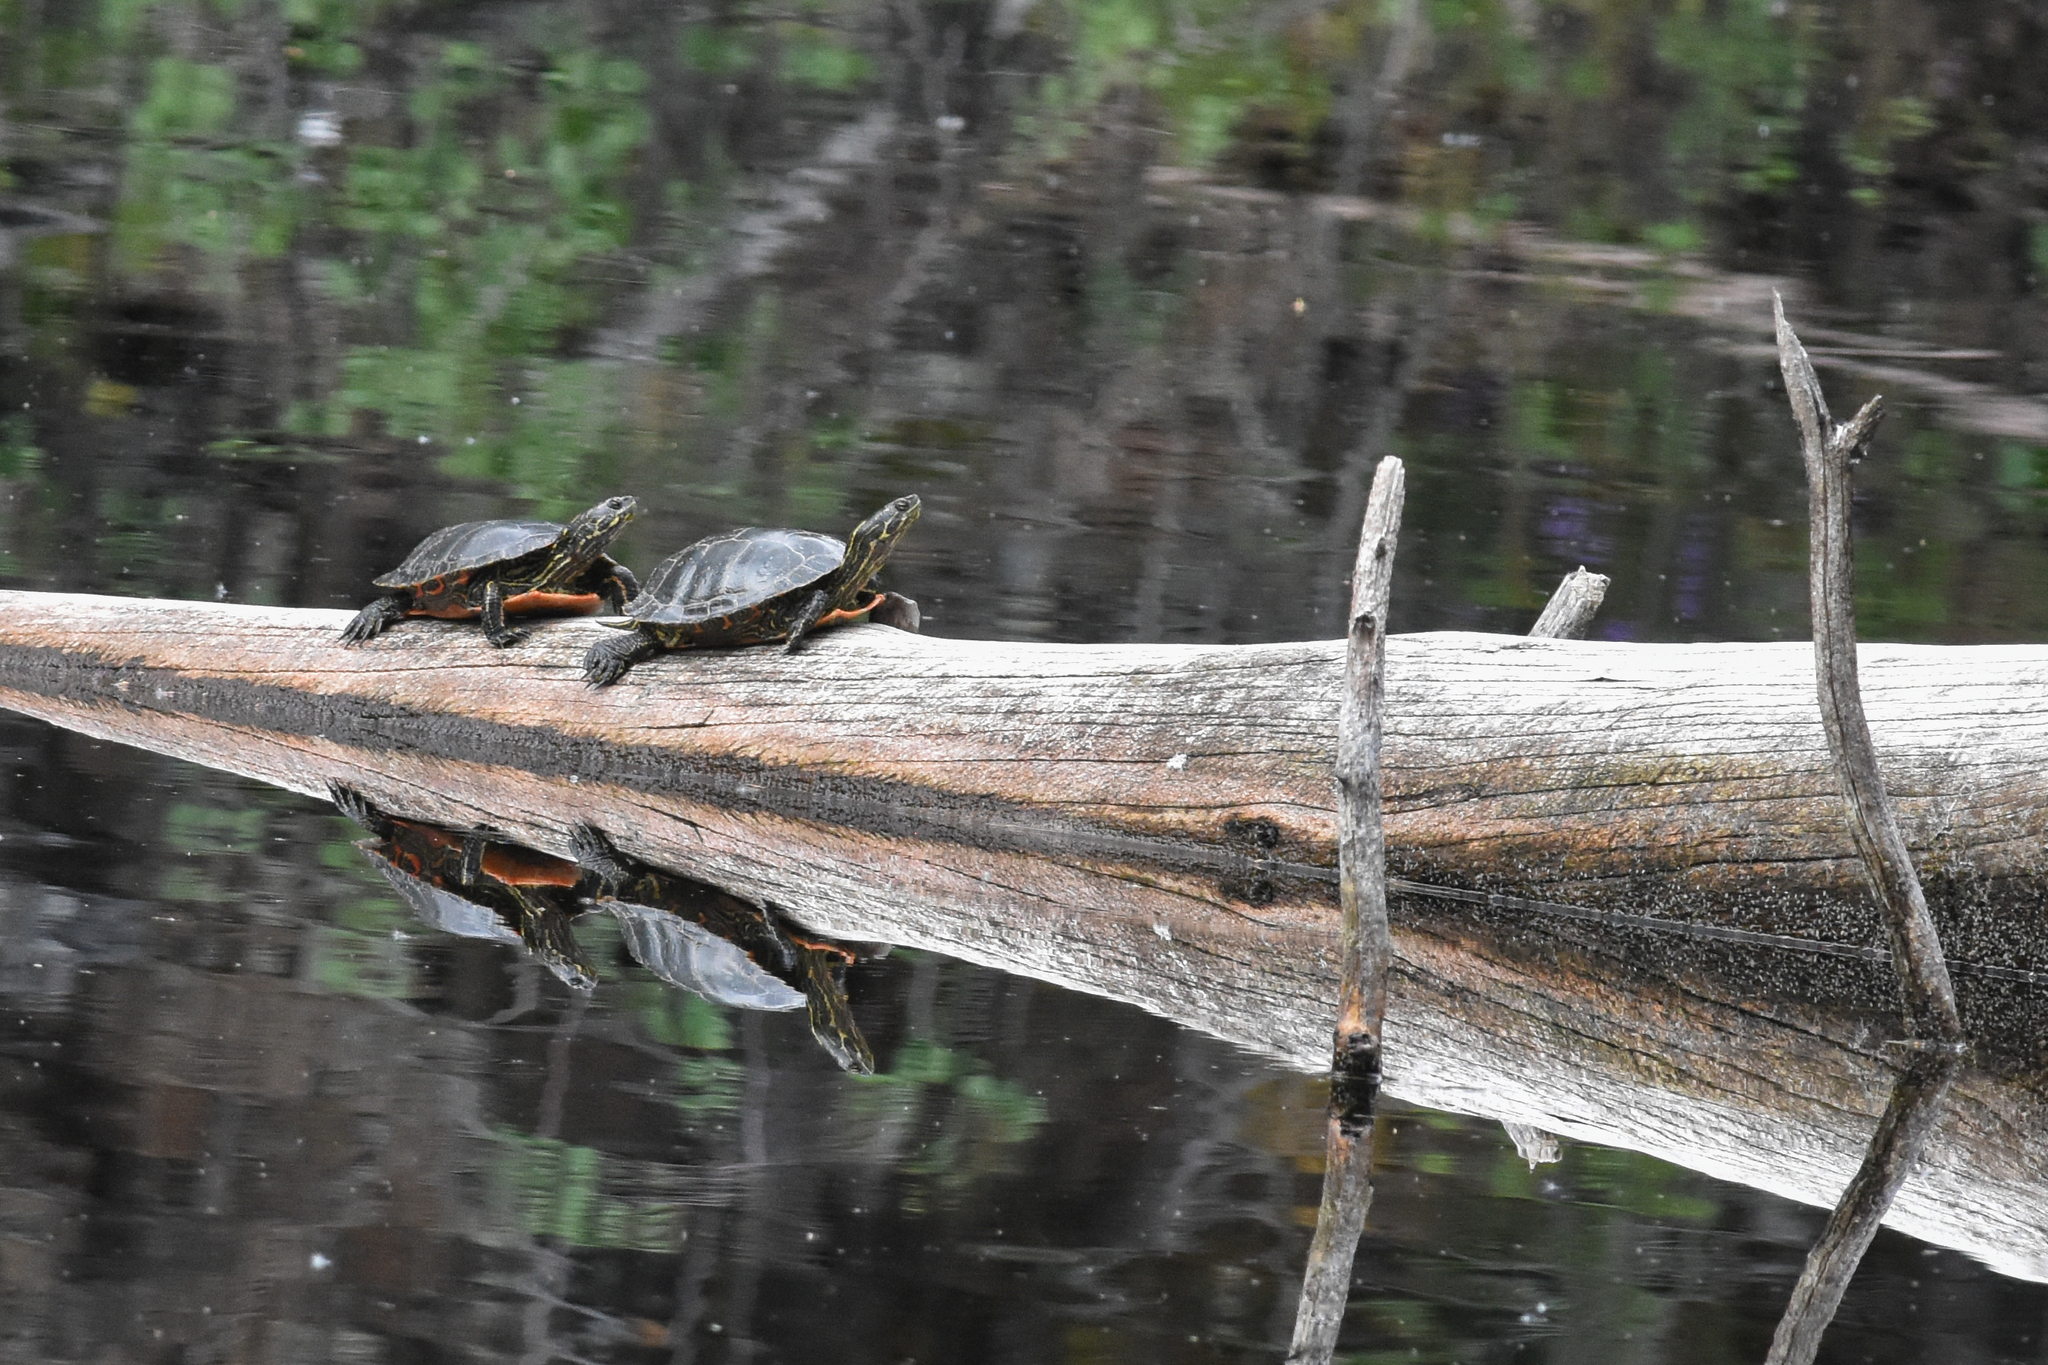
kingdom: Animalia
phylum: Chordata
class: Testudines
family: Emydidae
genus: Chrysemys
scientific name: Chrysemys picta
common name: Painted turtle
